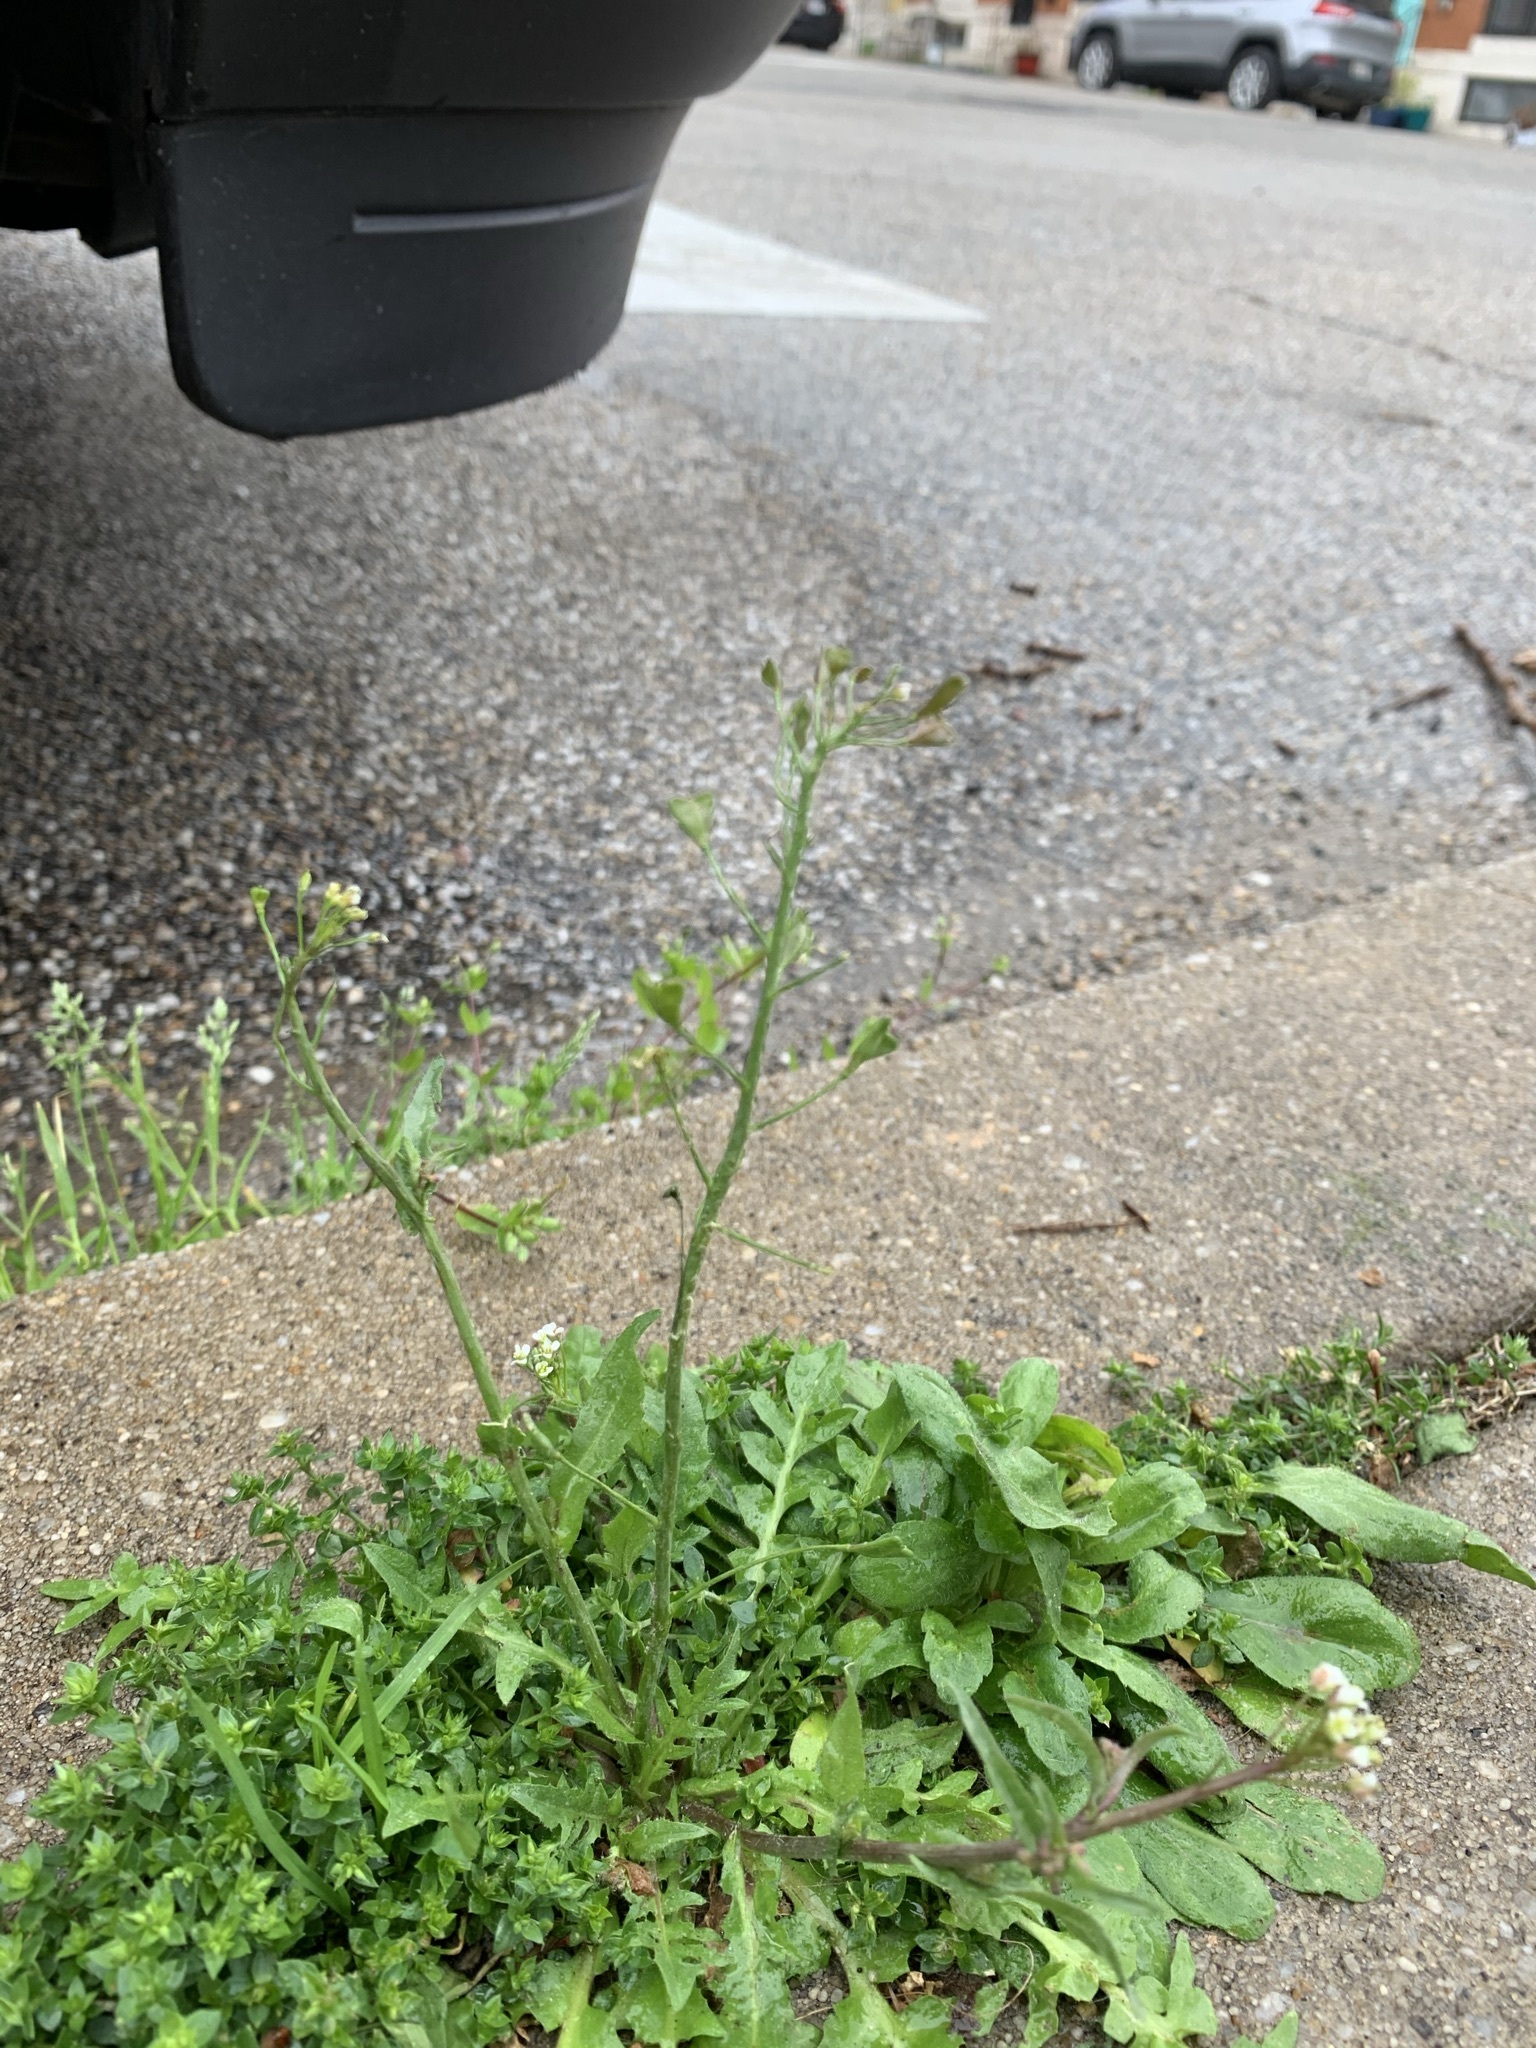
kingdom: Plantae
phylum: Tracheophyta
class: Magnoliopsida
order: Brassicales
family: Brassicaceae
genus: Capsella
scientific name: Capsella bursa-pastoris
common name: Shepherd's purse
